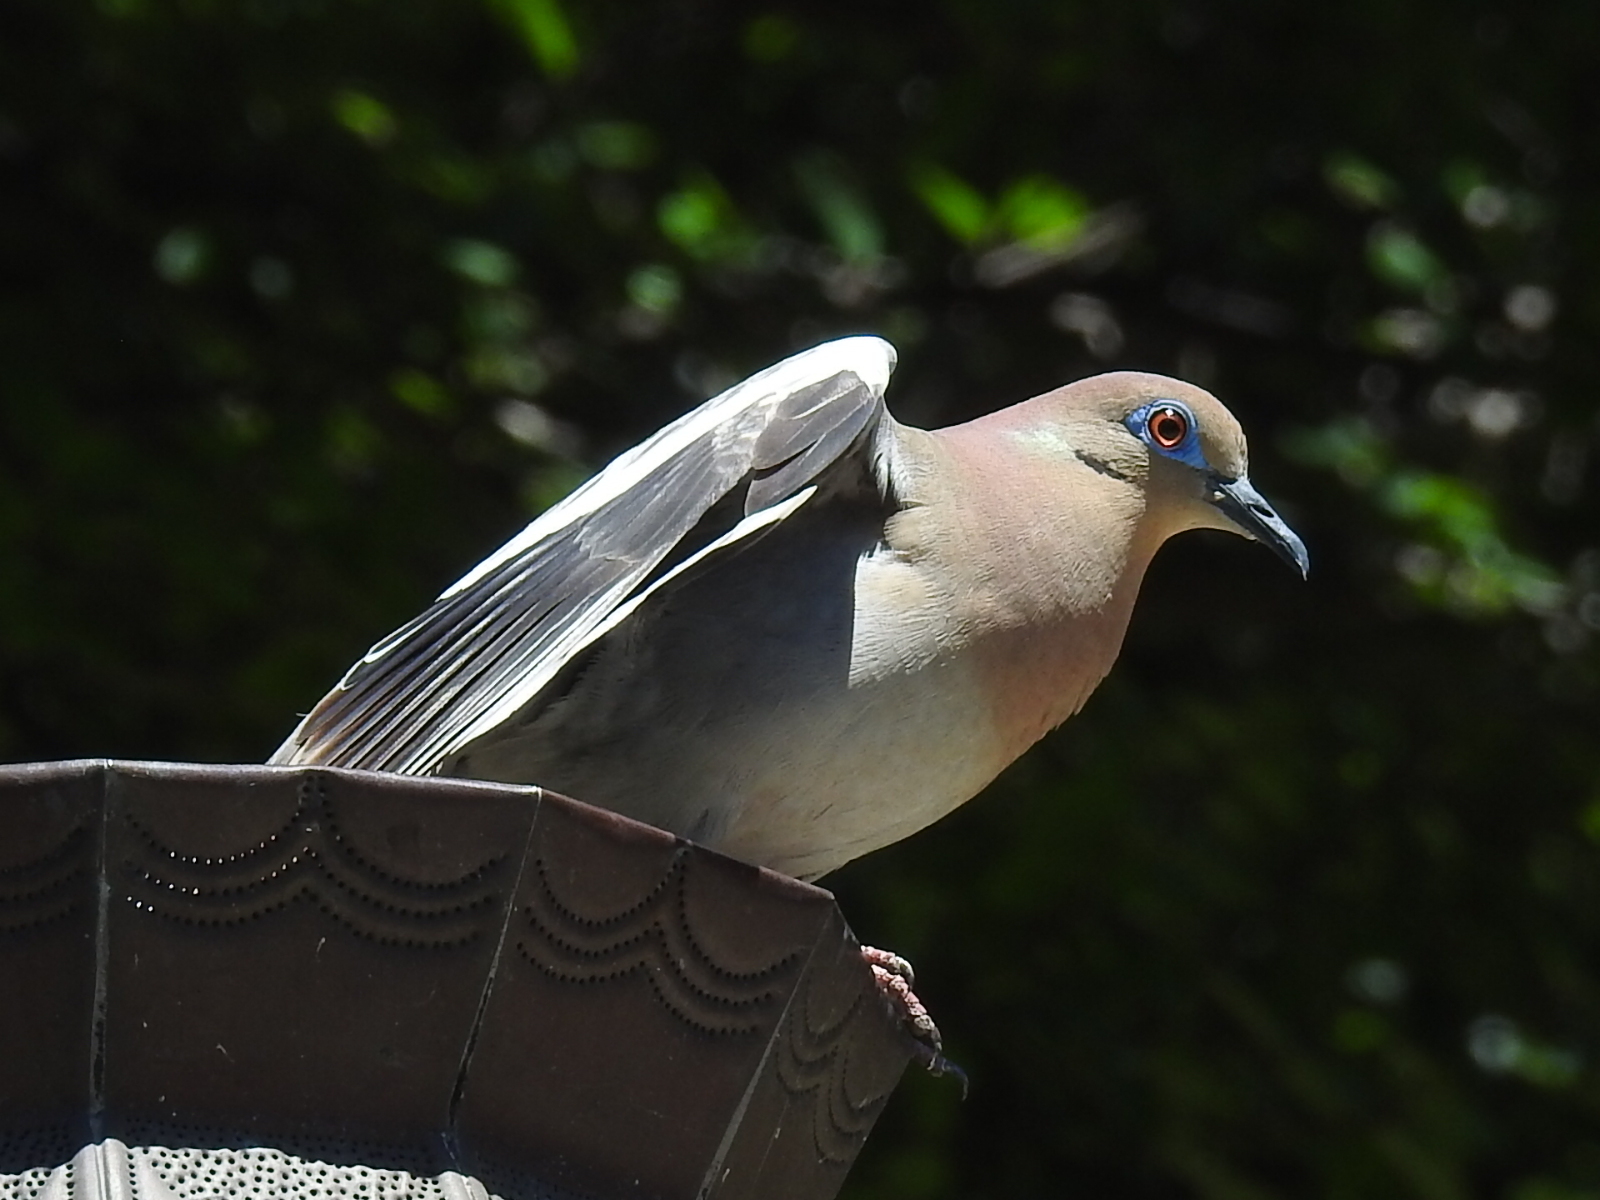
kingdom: Animalia
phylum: Chordata
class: Aves
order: Columbiformes
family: Columbidae
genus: Zenaida
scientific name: Zenaida asiatica
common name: White-winged dove
